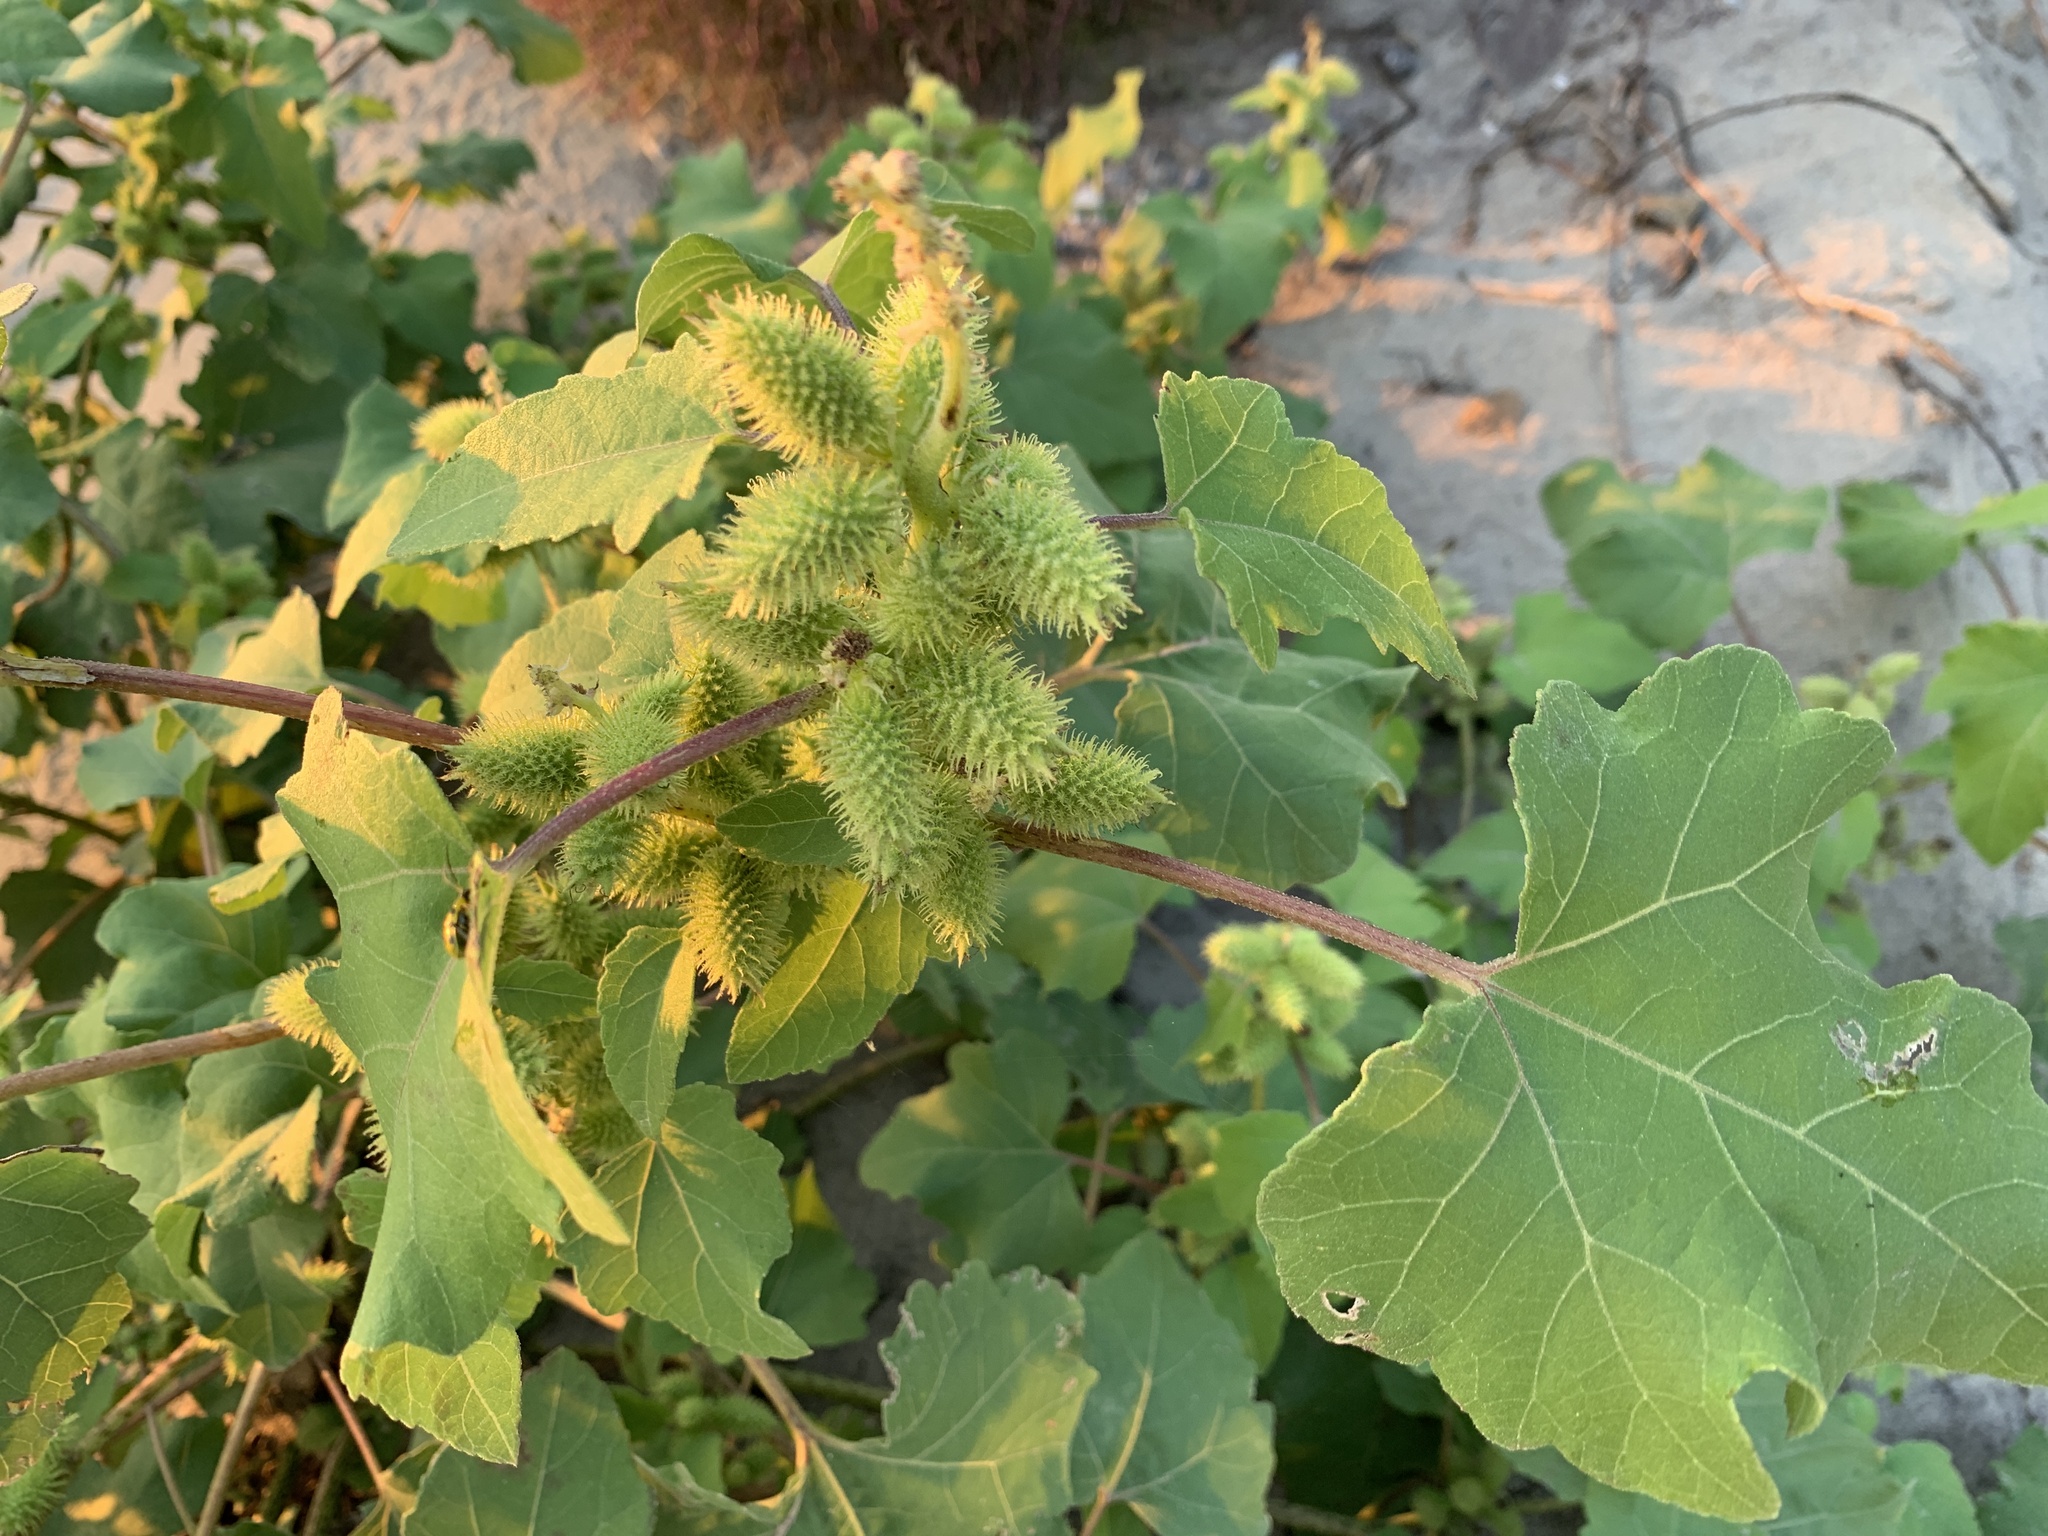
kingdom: Plantae
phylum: Tracheophyta
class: Magnoliopsida
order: Asterales
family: Asteraceae
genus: Xanthium
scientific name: Xanthium strumarium
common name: Rough cocklebur
